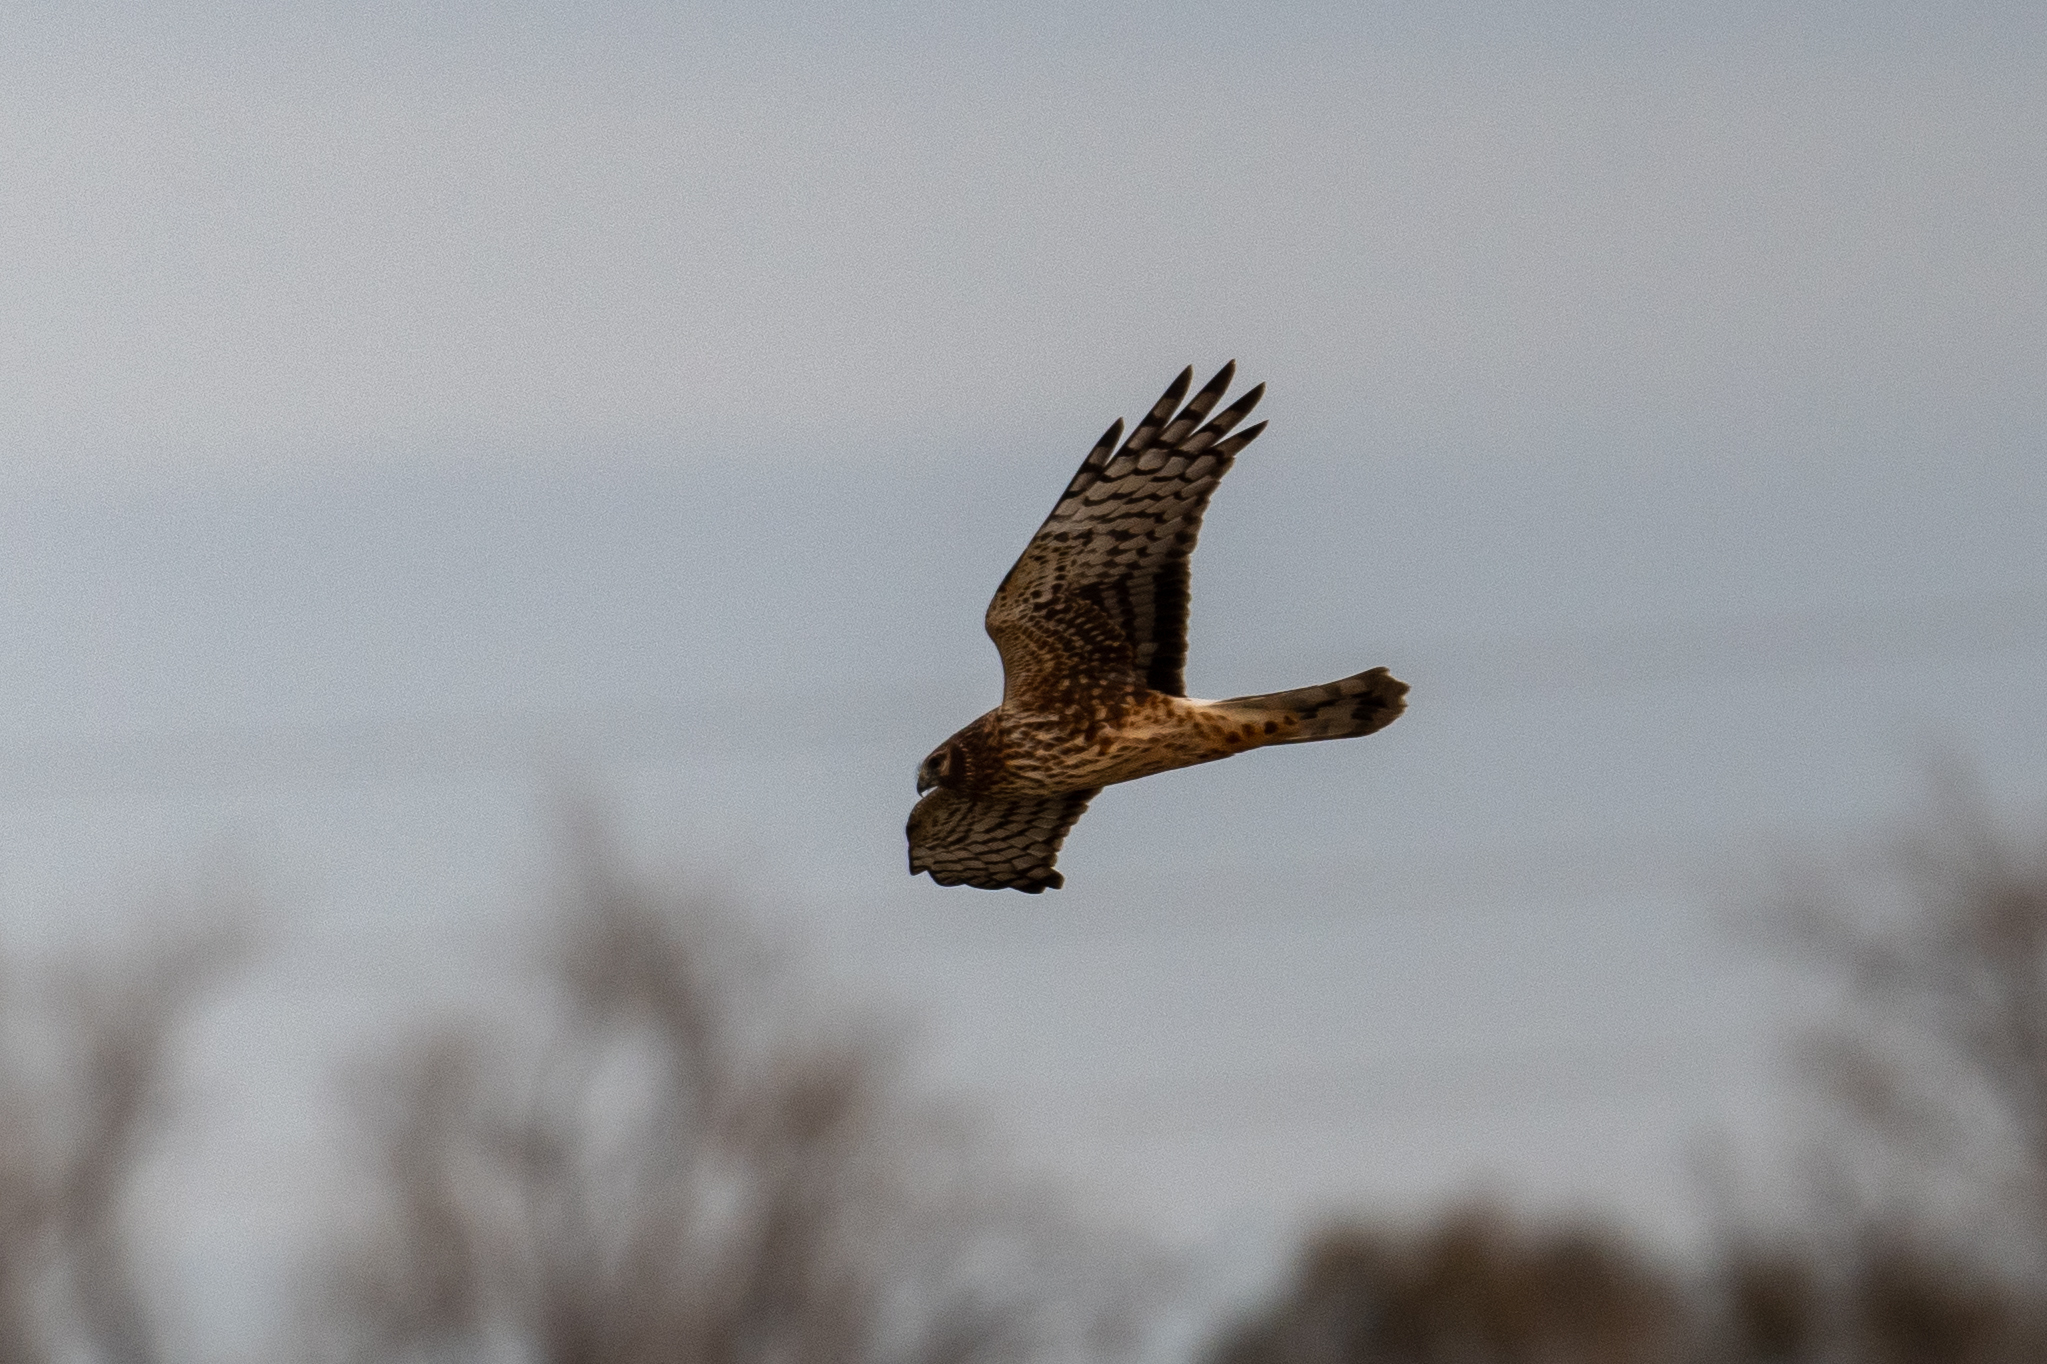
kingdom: Animalia
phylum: Chordata
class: Aves
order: Accipitriformes
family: Accipitridae
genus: Circus
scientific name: Circus cyaneus
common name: Hen harrier
